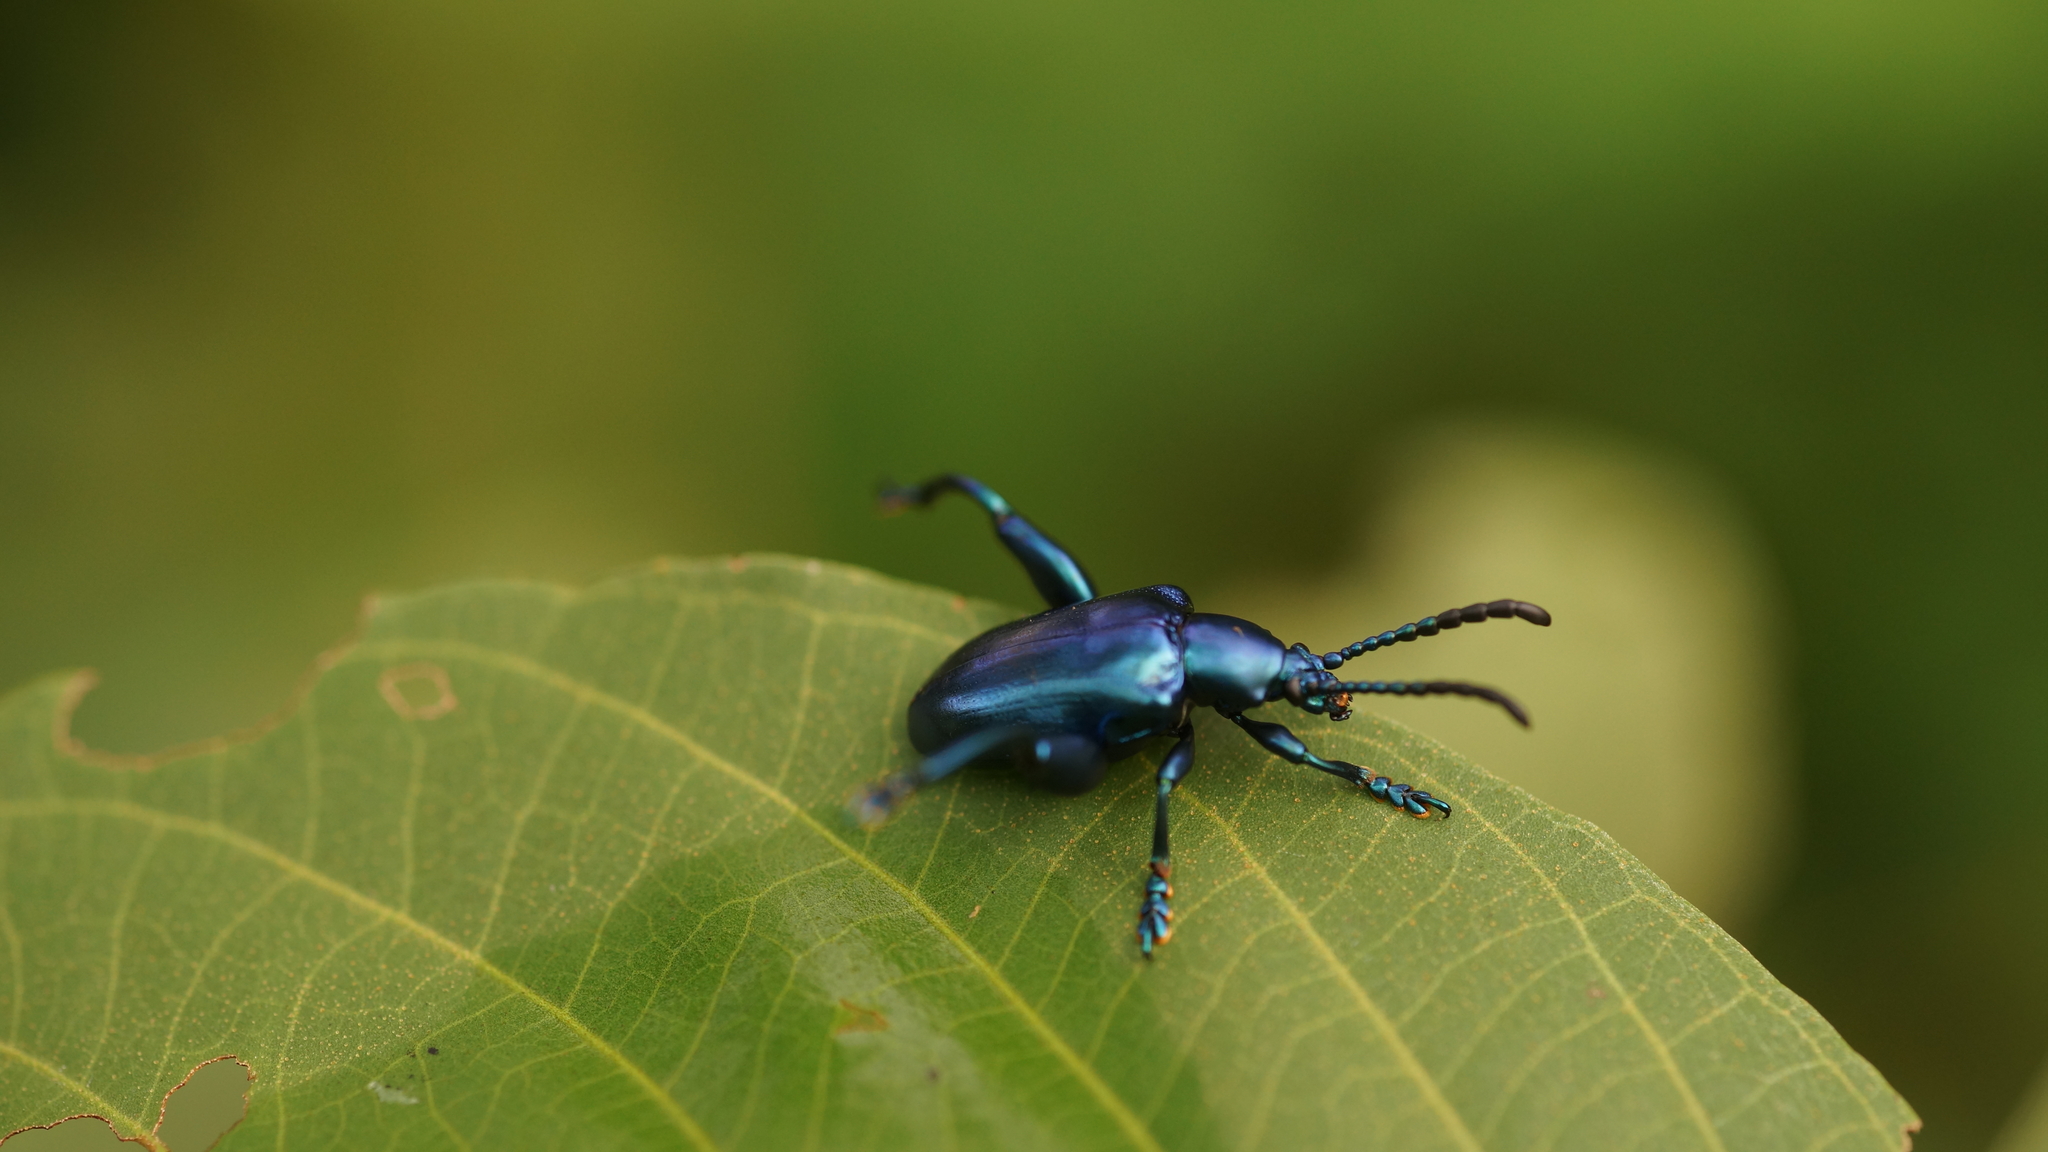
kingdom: Animalia
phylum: Arthropoda
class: Insecta
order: Coleoptera
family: Chrysomelidae
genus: Sagra
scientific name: Sagra femorata
